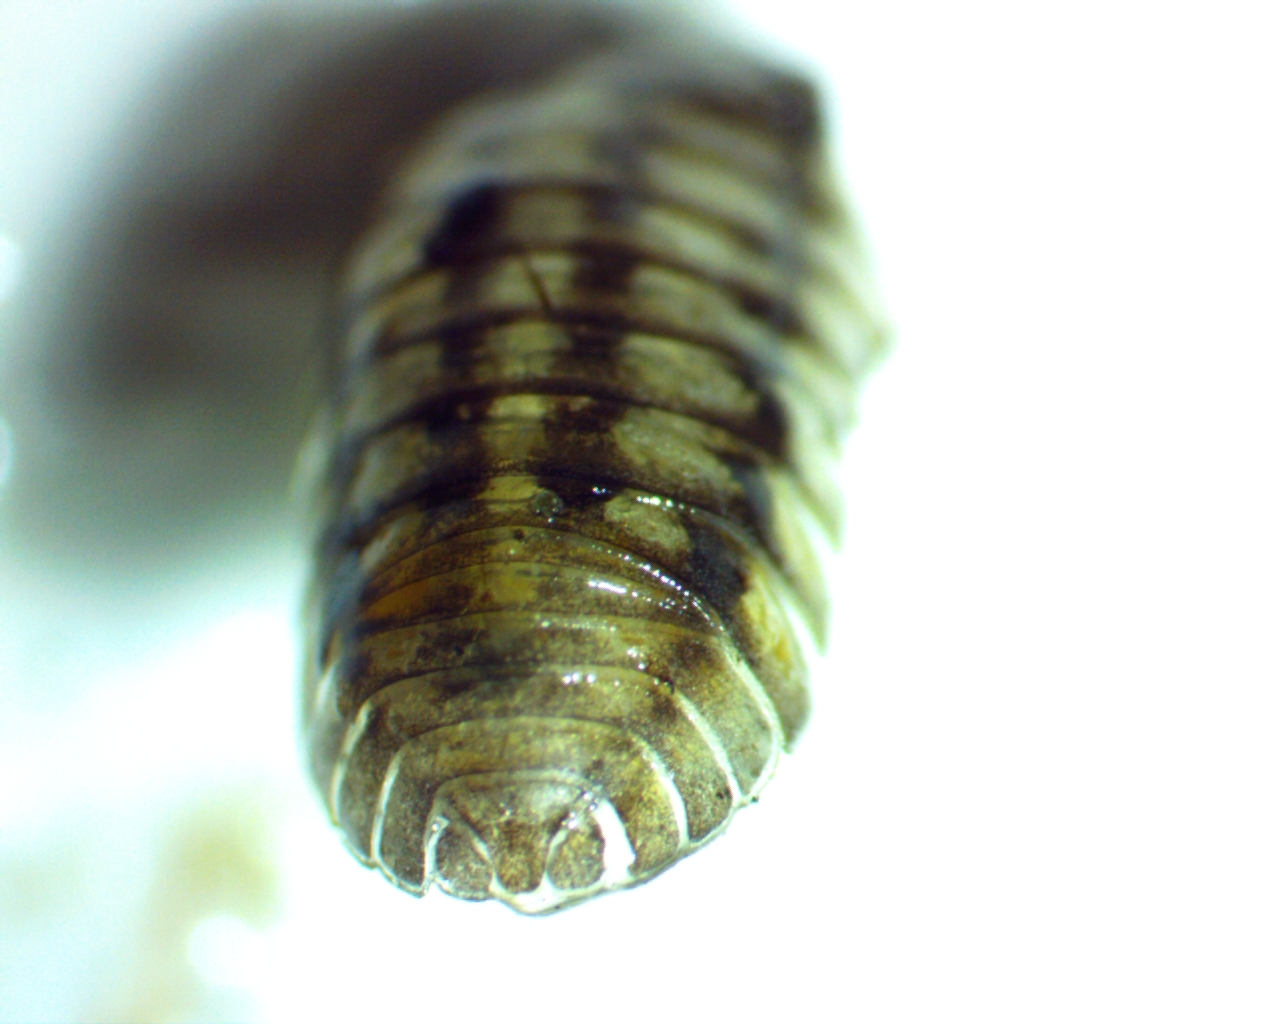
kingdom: Animalia
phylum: Arthropoda
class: Malacostraca
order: Isopoda
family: Armadillidiidae
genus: Armadillidium
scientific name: Armadillidium nasatum
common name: Isopod
